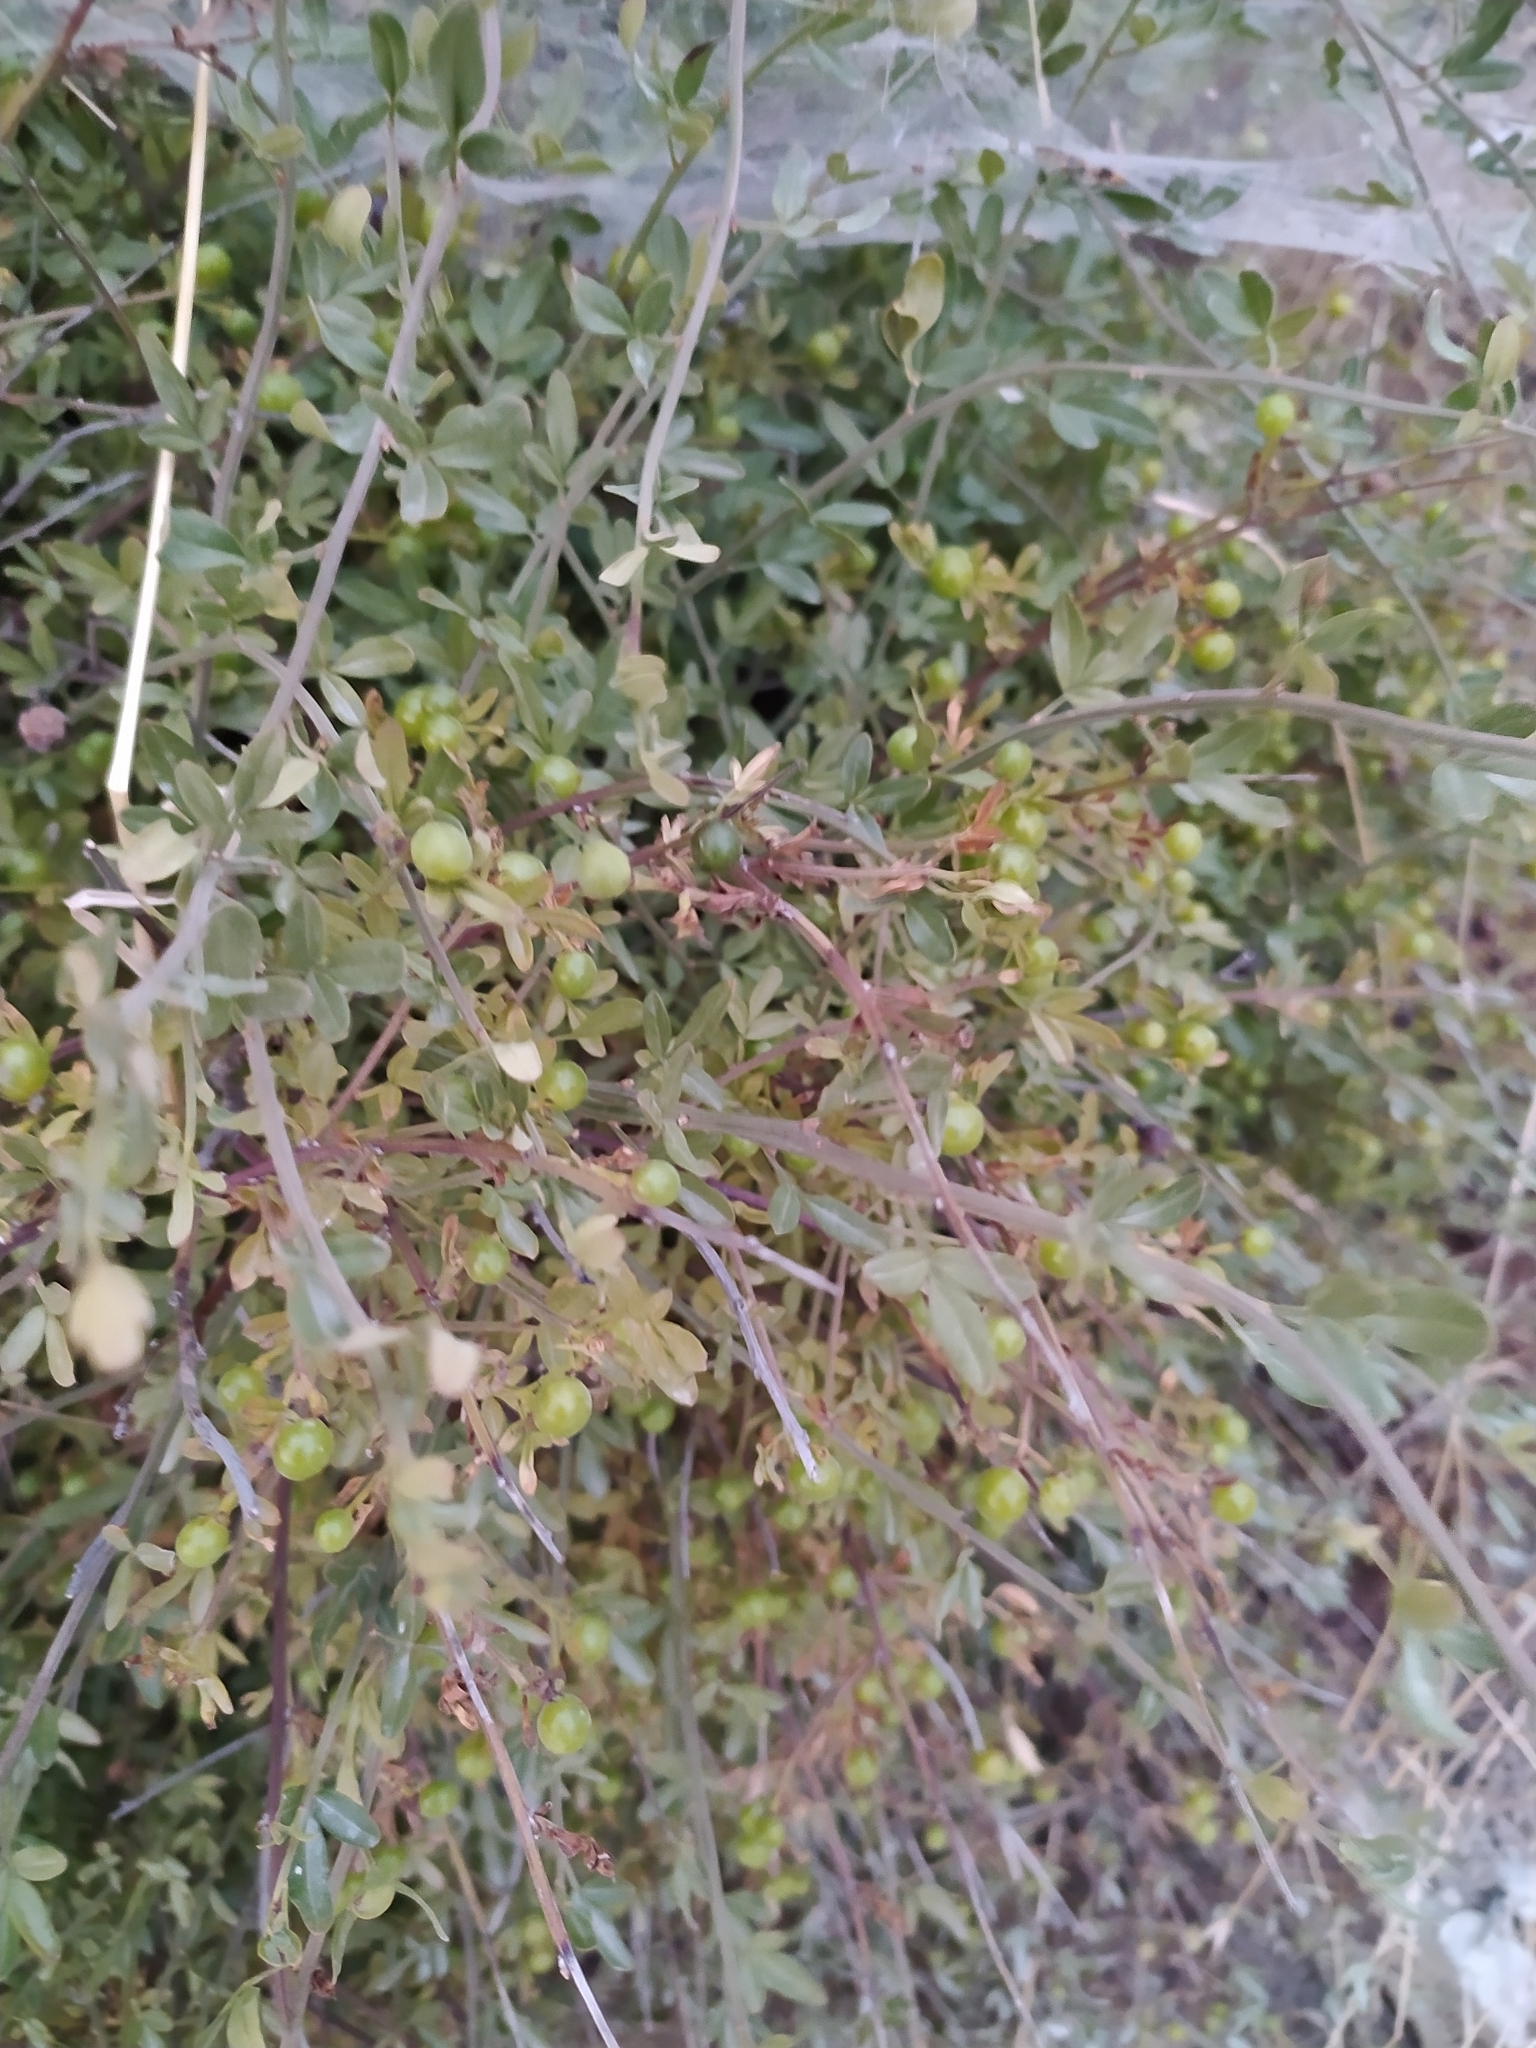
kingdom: Plantae
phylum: Tracheophyta
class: Magnoliopsida
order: Lamiales
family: Oleaceae
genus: Chrysojasminum
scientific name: Chrysojasminum fruticans
